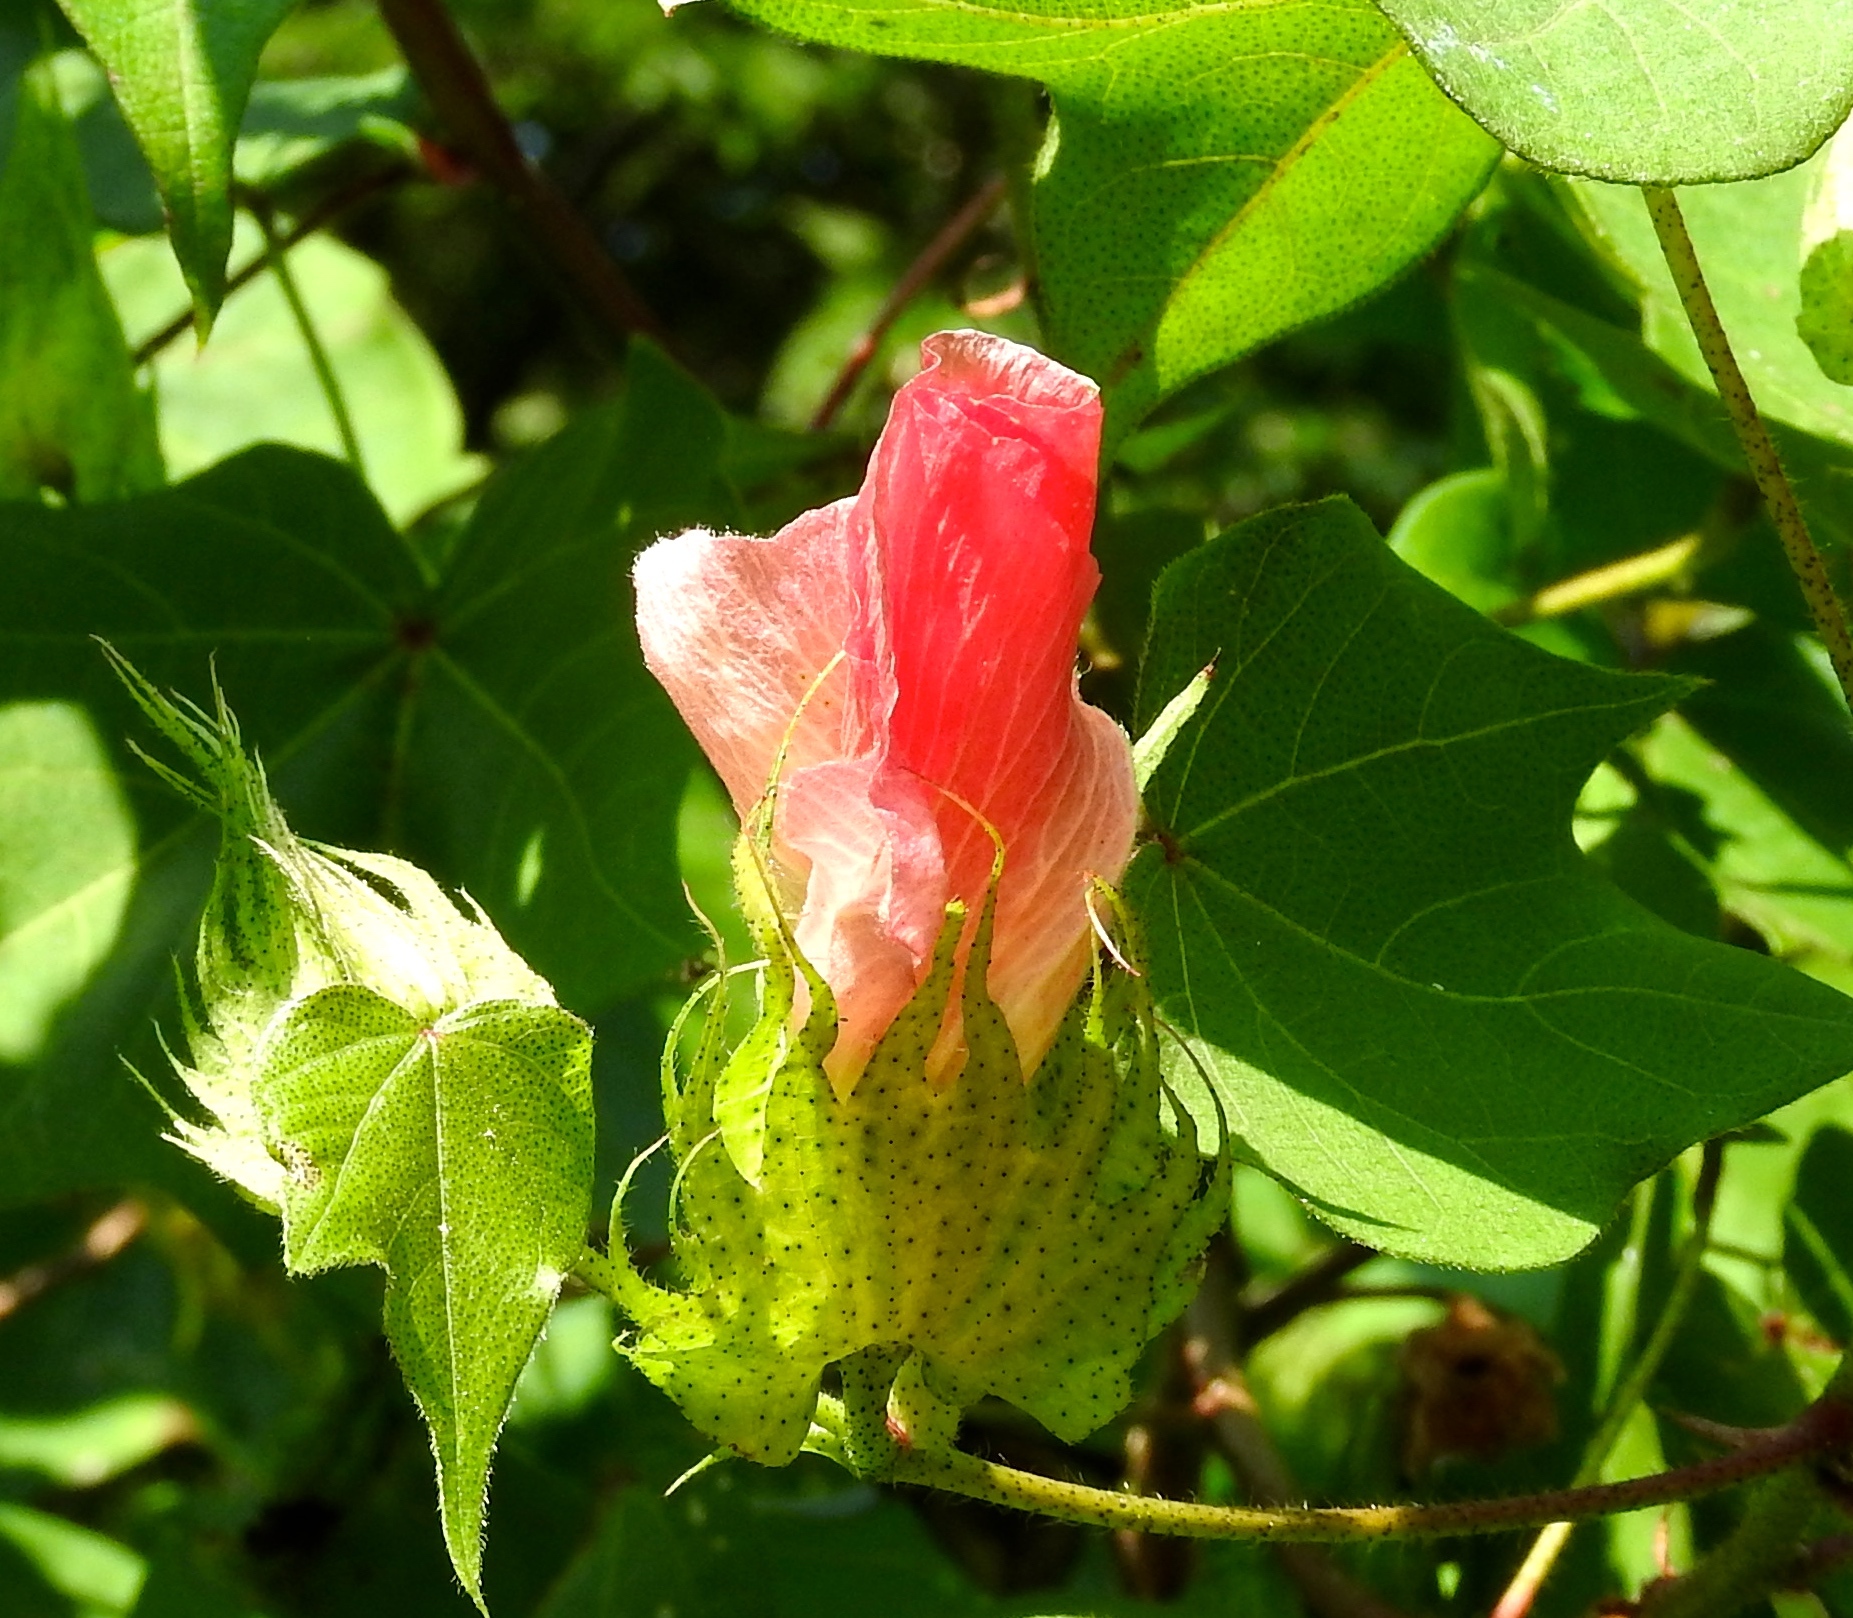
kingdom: Plantae
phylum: Tracheophyta
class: Magnoliopsida
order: Malvales
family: Malvaceae
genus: Gossypium
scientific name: Gossypium hirsutum
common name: Cotton
